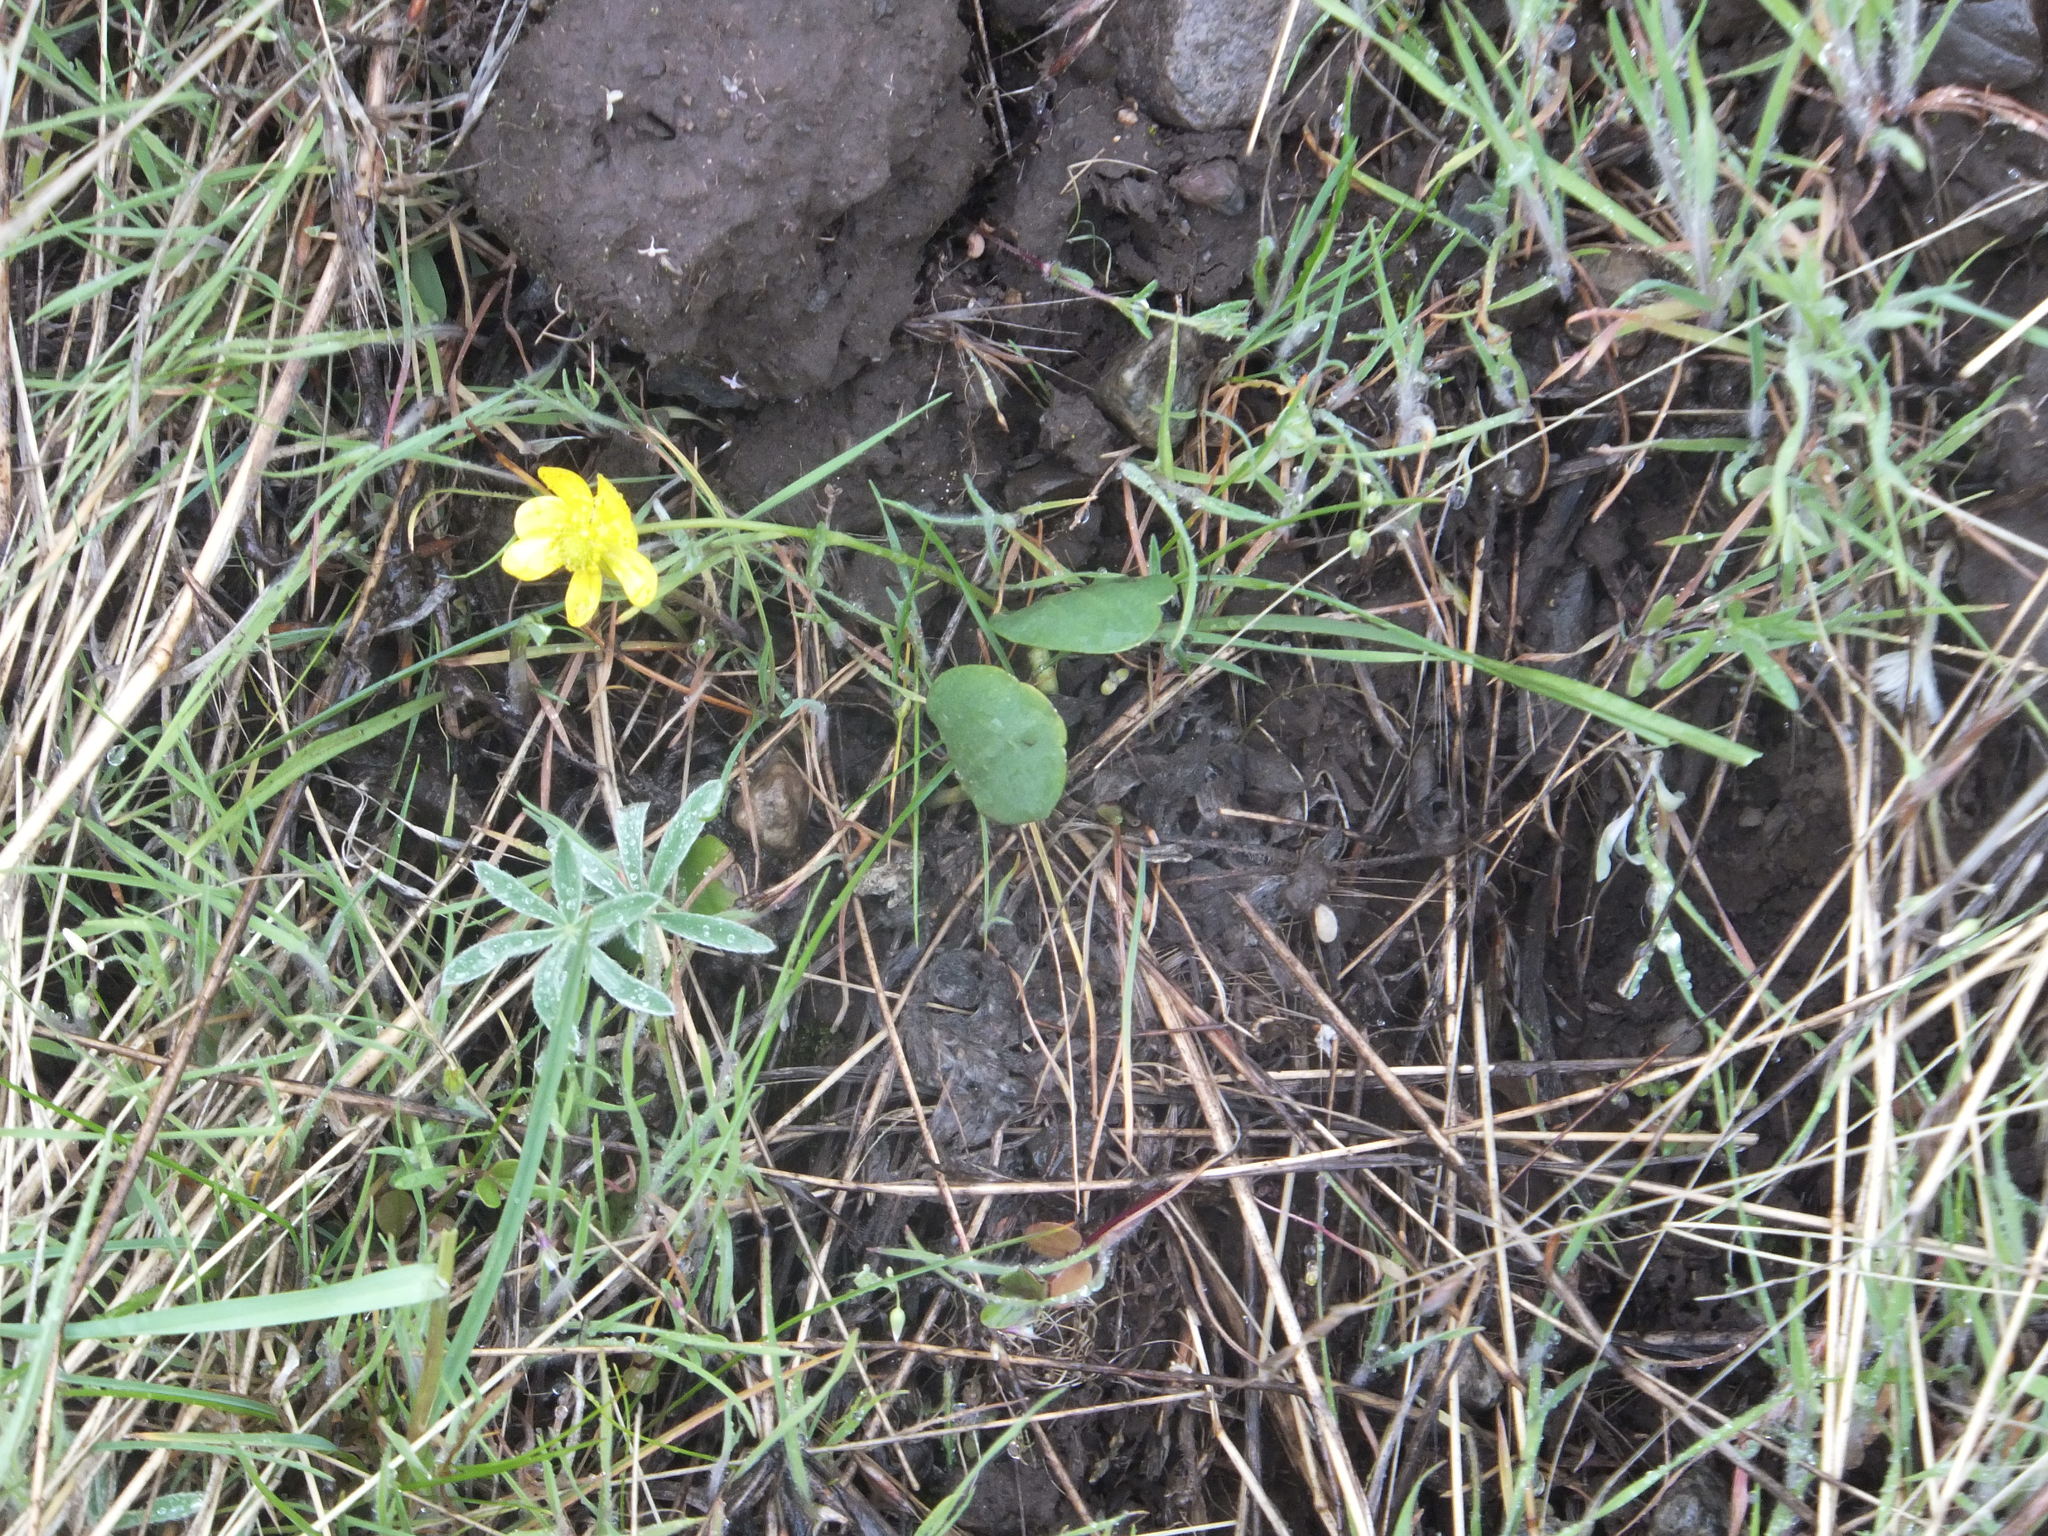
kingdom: Plantae
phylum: Tracheophyta
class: Magnoliopsida
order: Ranunculales
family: Ranunculaceae
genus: Ranunculus
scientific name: Ranunculus glaberrimus
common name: Sagebrush buttercup
